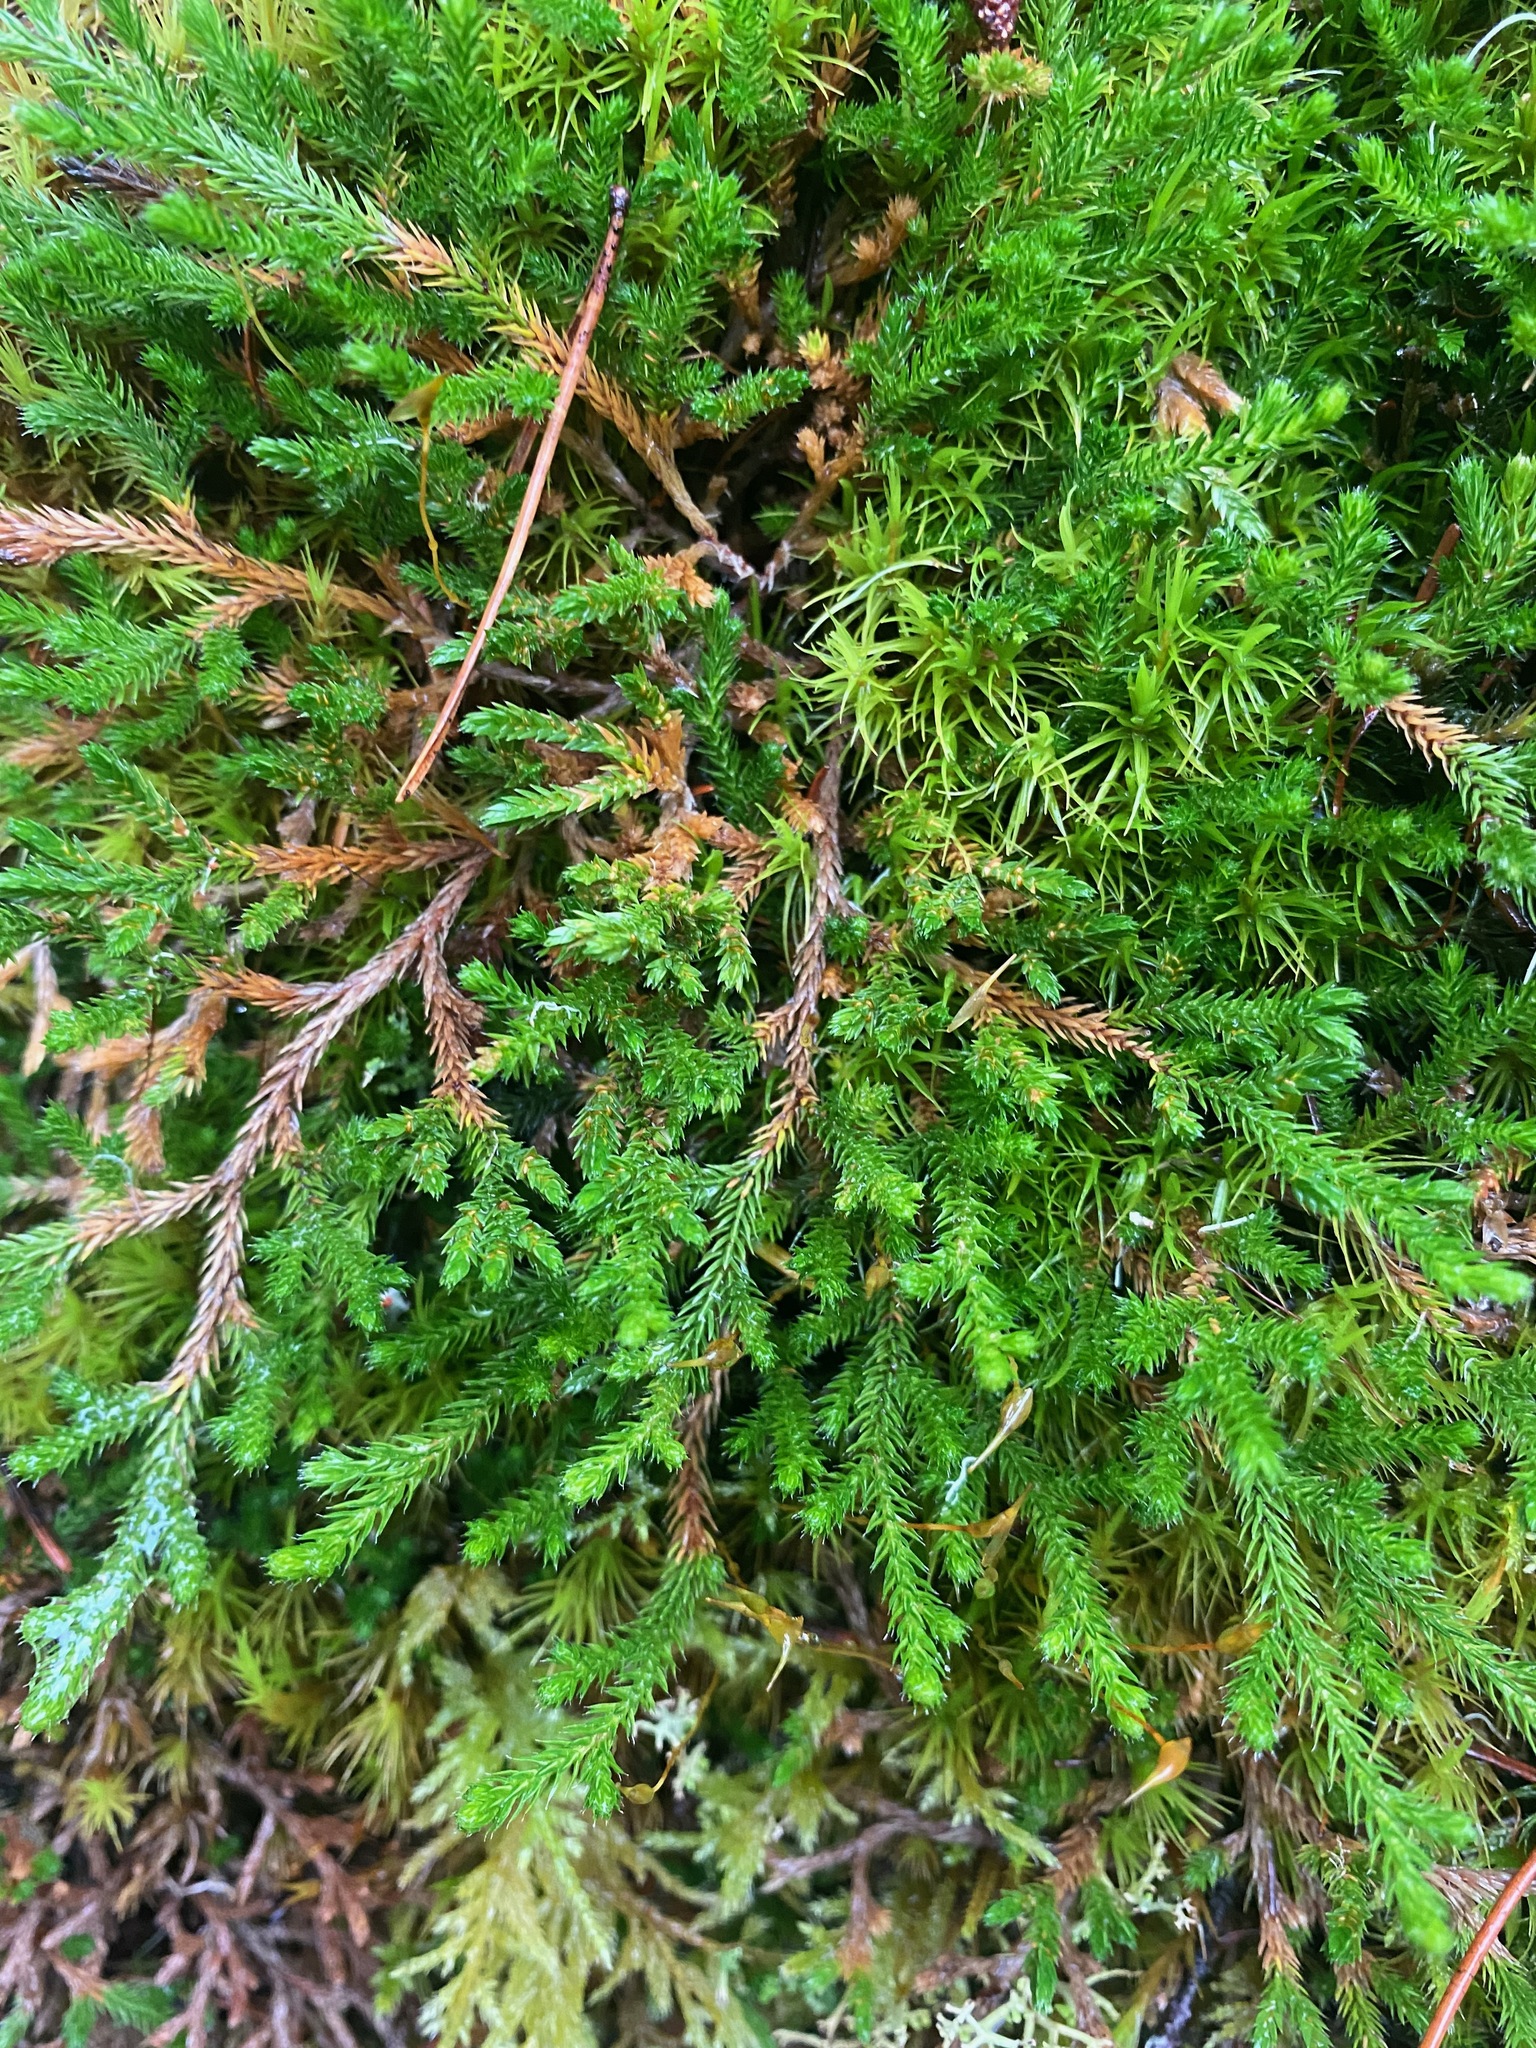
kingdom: Plantae
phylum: Tracheophyta
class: Lycopodiopsida
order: Selaginellales
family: Selaginellaceae
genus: Selaginella
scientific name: Selaginella wallacei
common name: Wallace's selaginella
